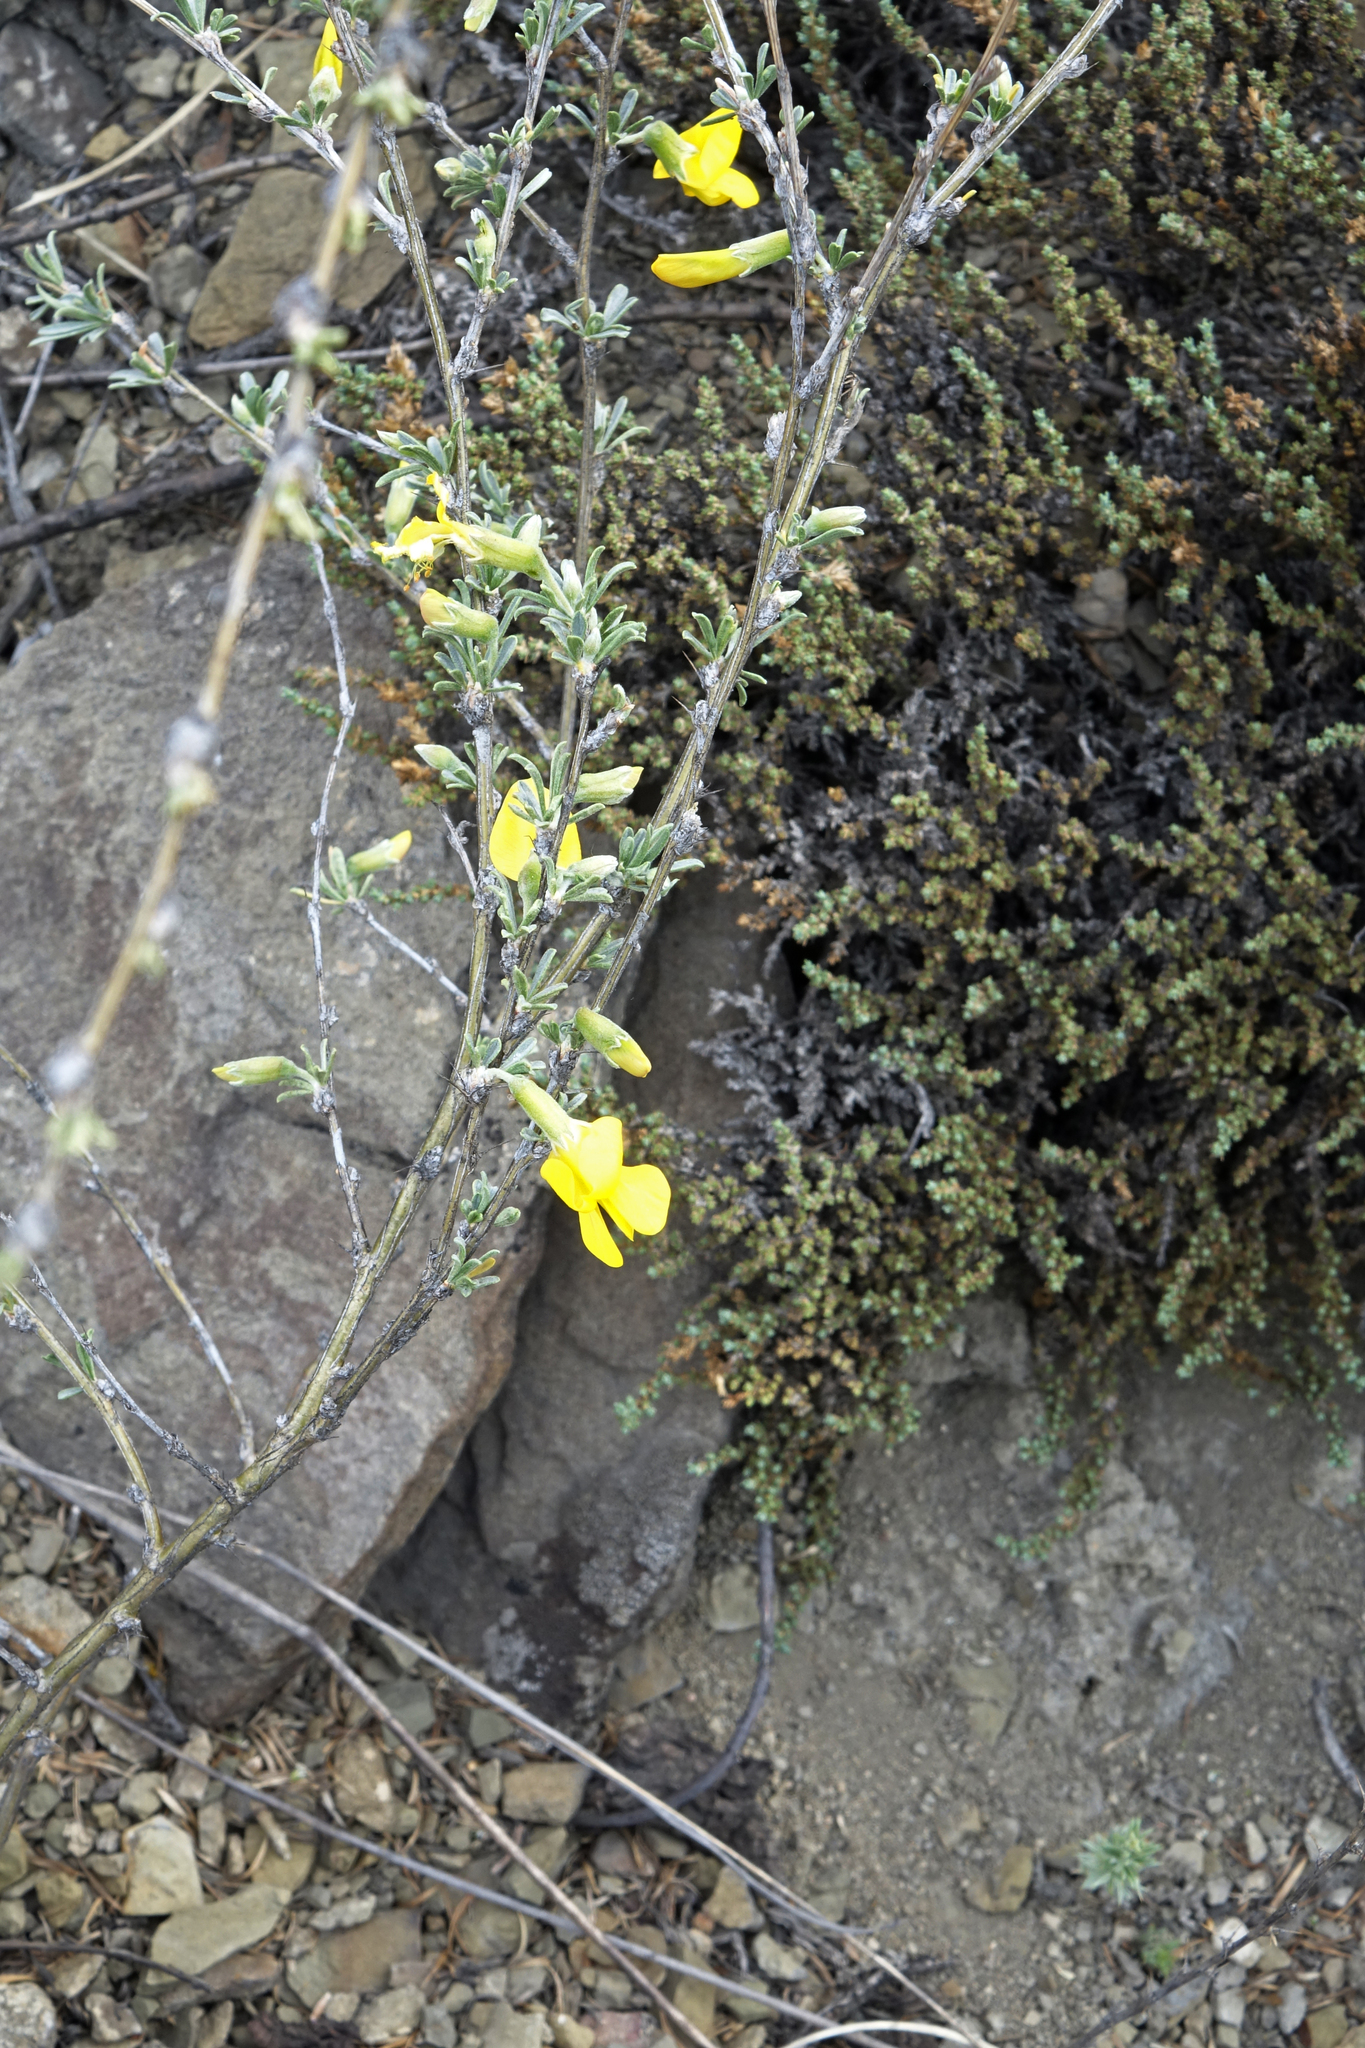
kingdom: Plantae
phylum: Tracheophyta
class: Magnoliopsida
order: Fabales
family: Fabaceae
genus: Caragana
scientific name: Caragana pygmaea
